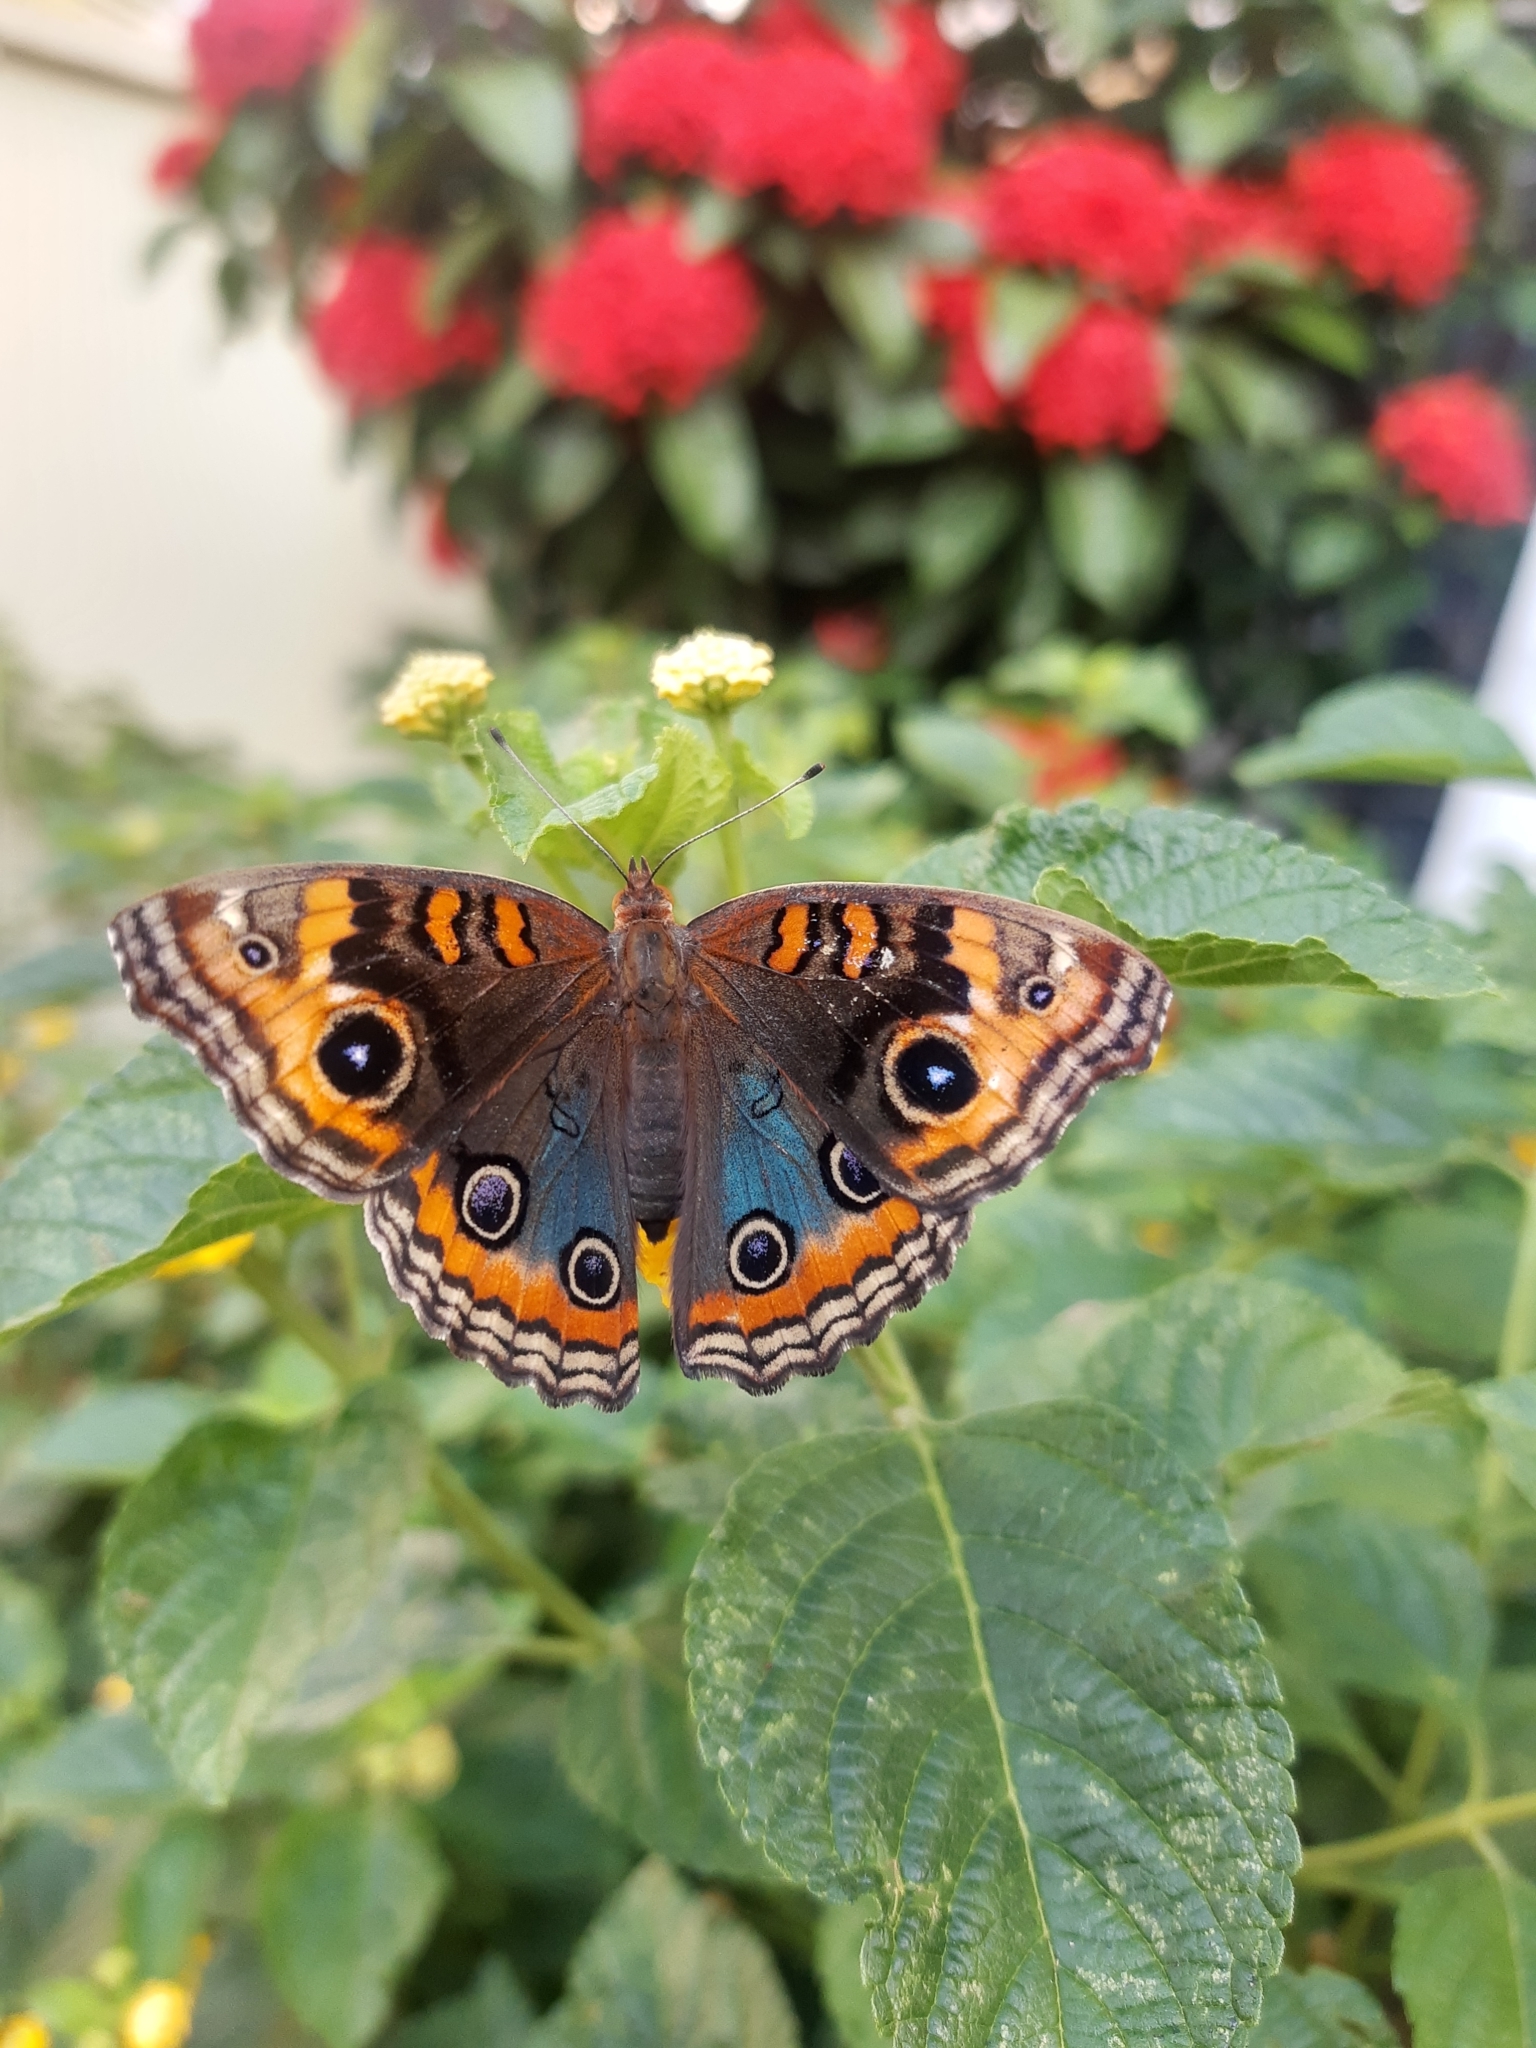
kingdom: Animalia
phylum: Arthropoda
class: Insecta
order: Lepidoptera
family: Nymphalidae
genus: Junonia
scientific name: Junonia evarete
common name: Black mangrove buckeye
